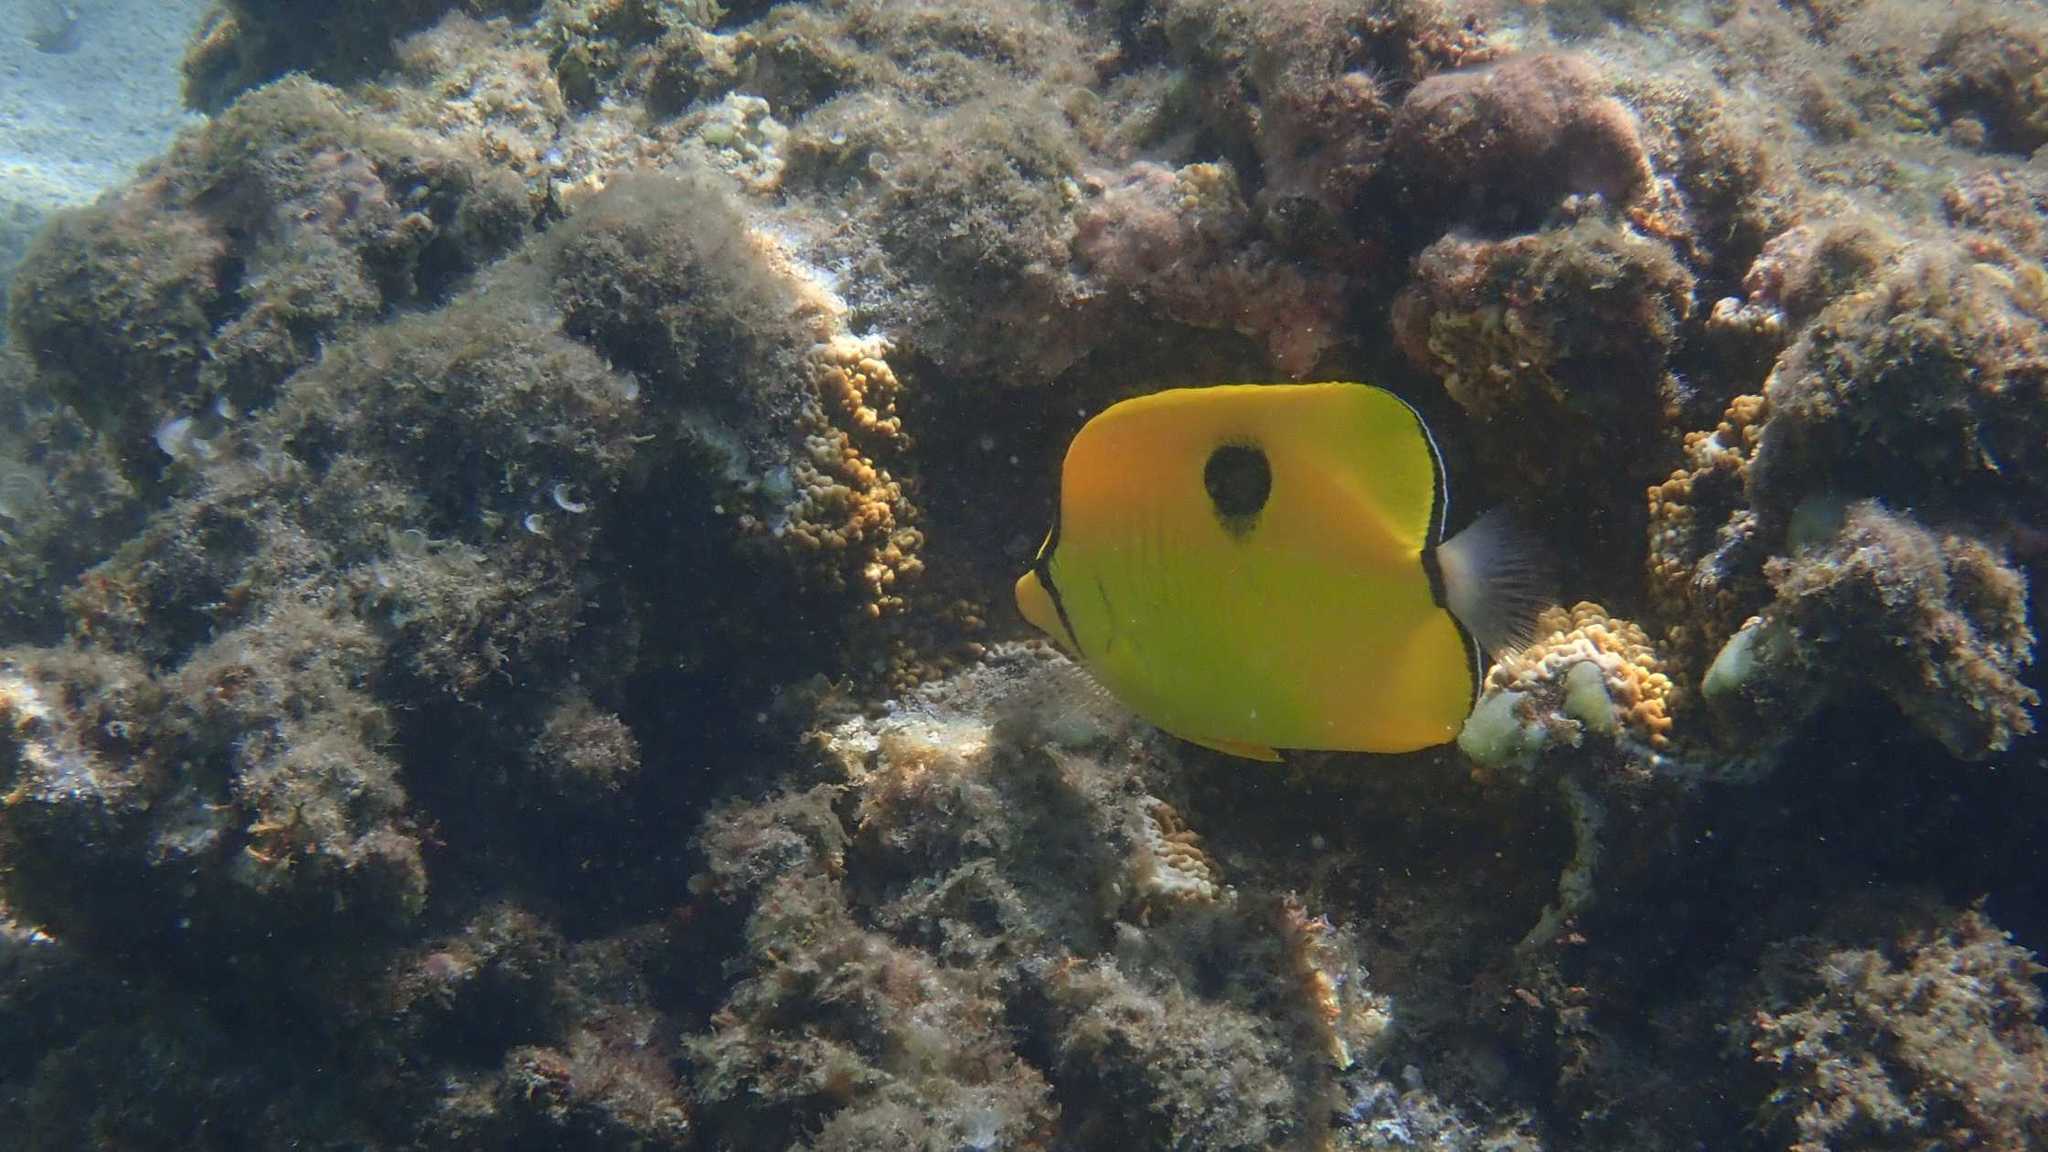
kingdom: Animalia
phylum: Chordata
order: Perciformes
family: Chaetodontidae
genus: Chaetodon
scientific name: Chaetodon interruptus
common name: Yellow teardrop butterflyfish
